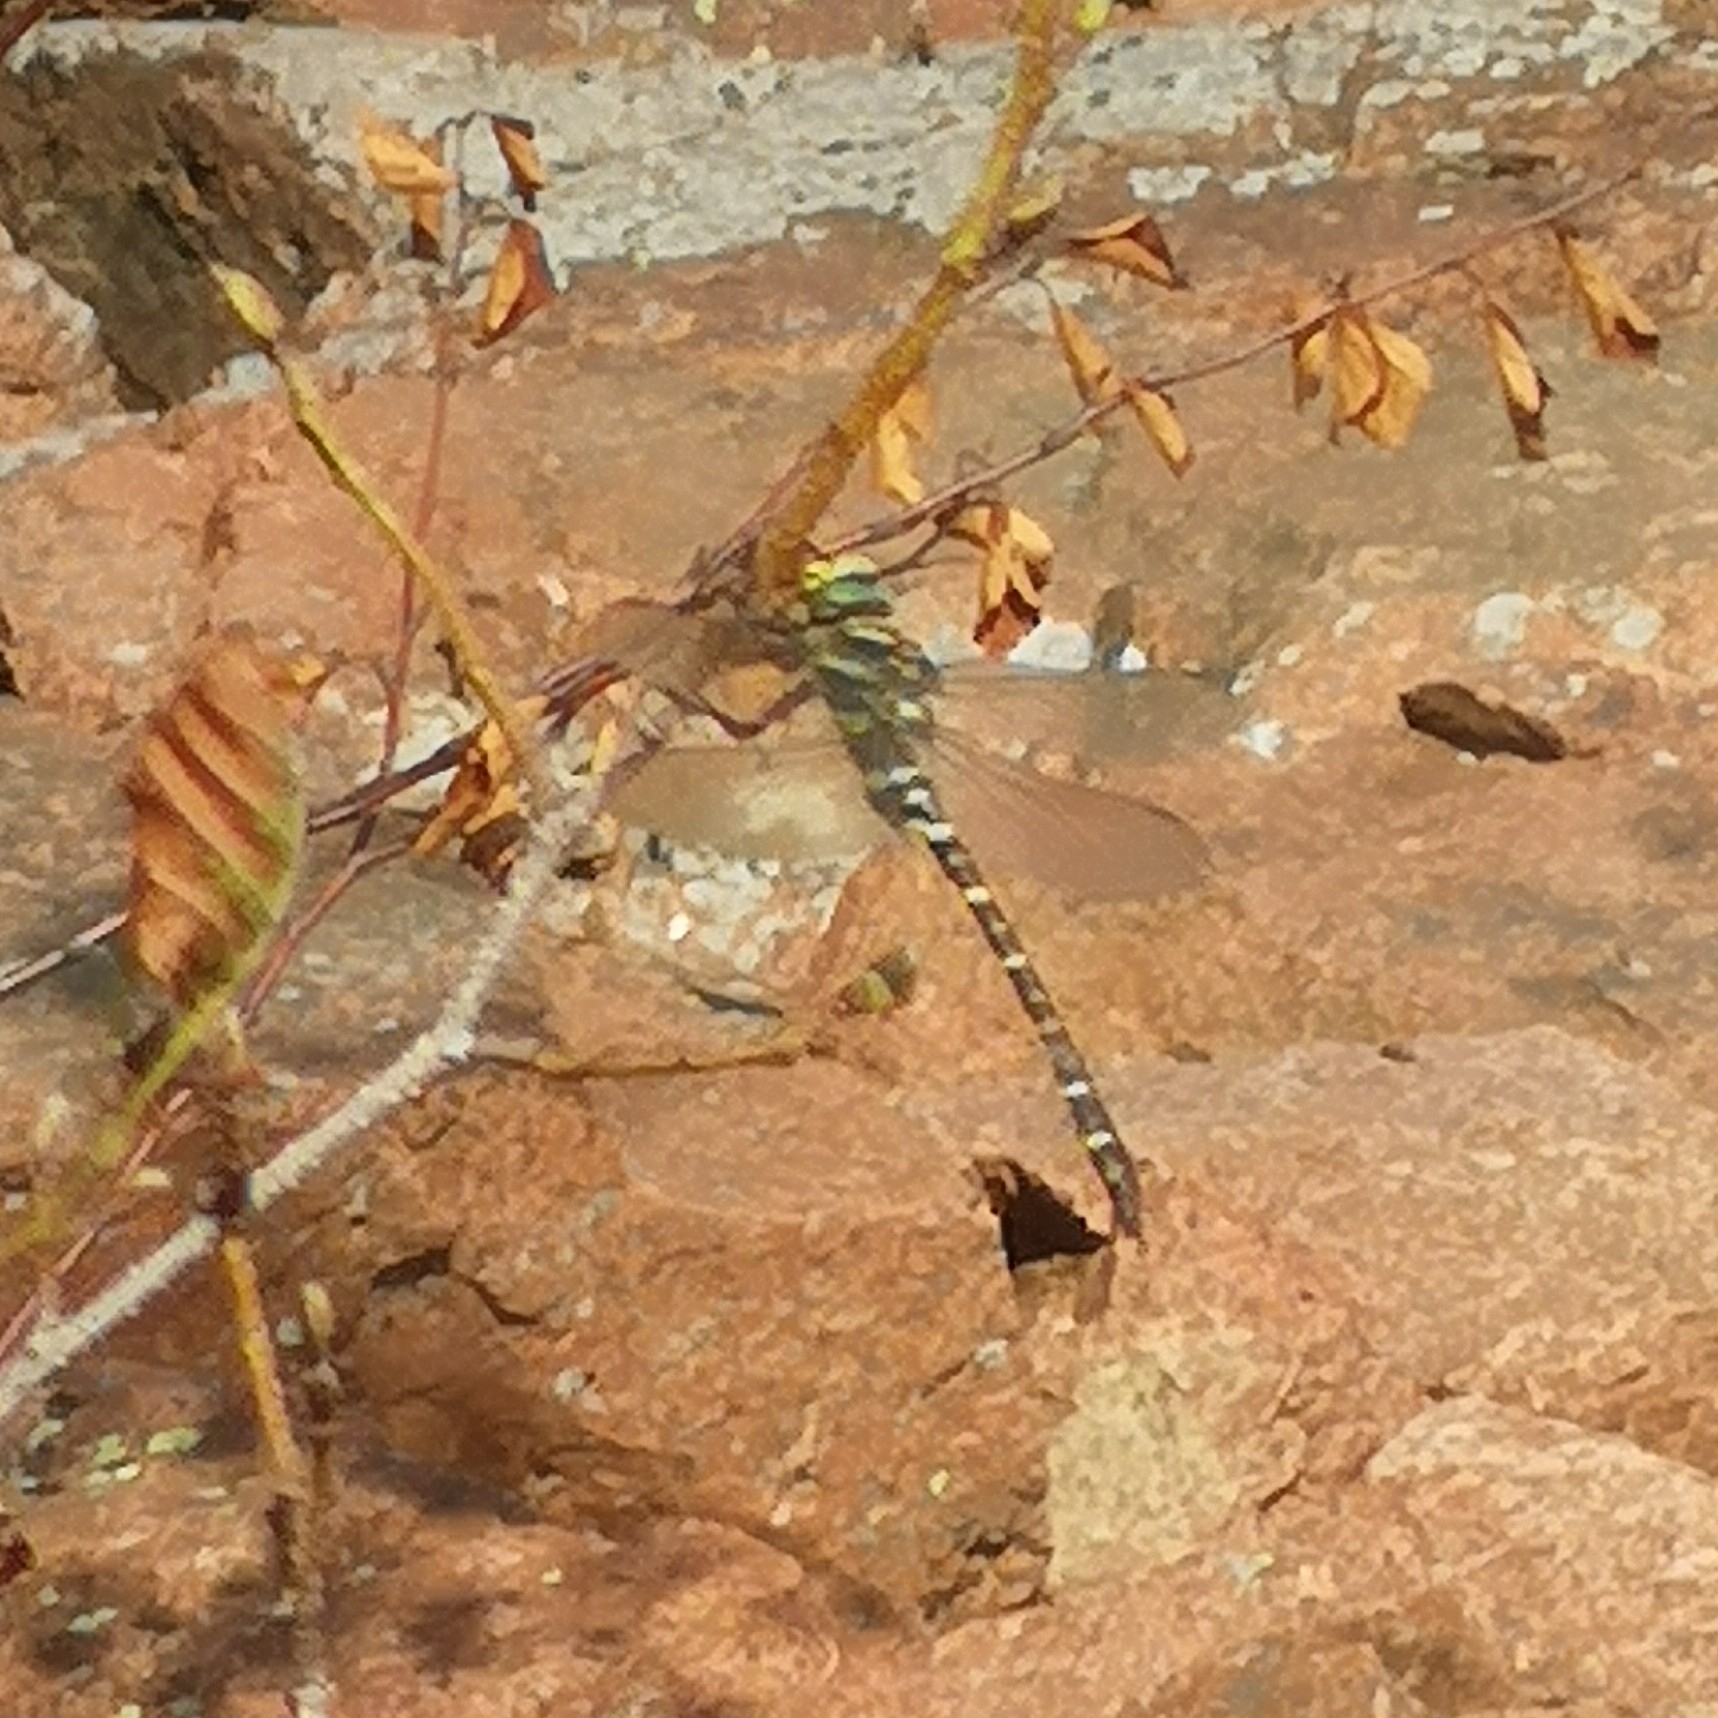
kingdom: Animalia
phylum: Arthropoda
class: Insecta
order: Odonata
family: Cordulegastridae
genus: Cordulegaster
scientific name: Cordulegaster boltonii
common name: Golden-ringed dragonfly
